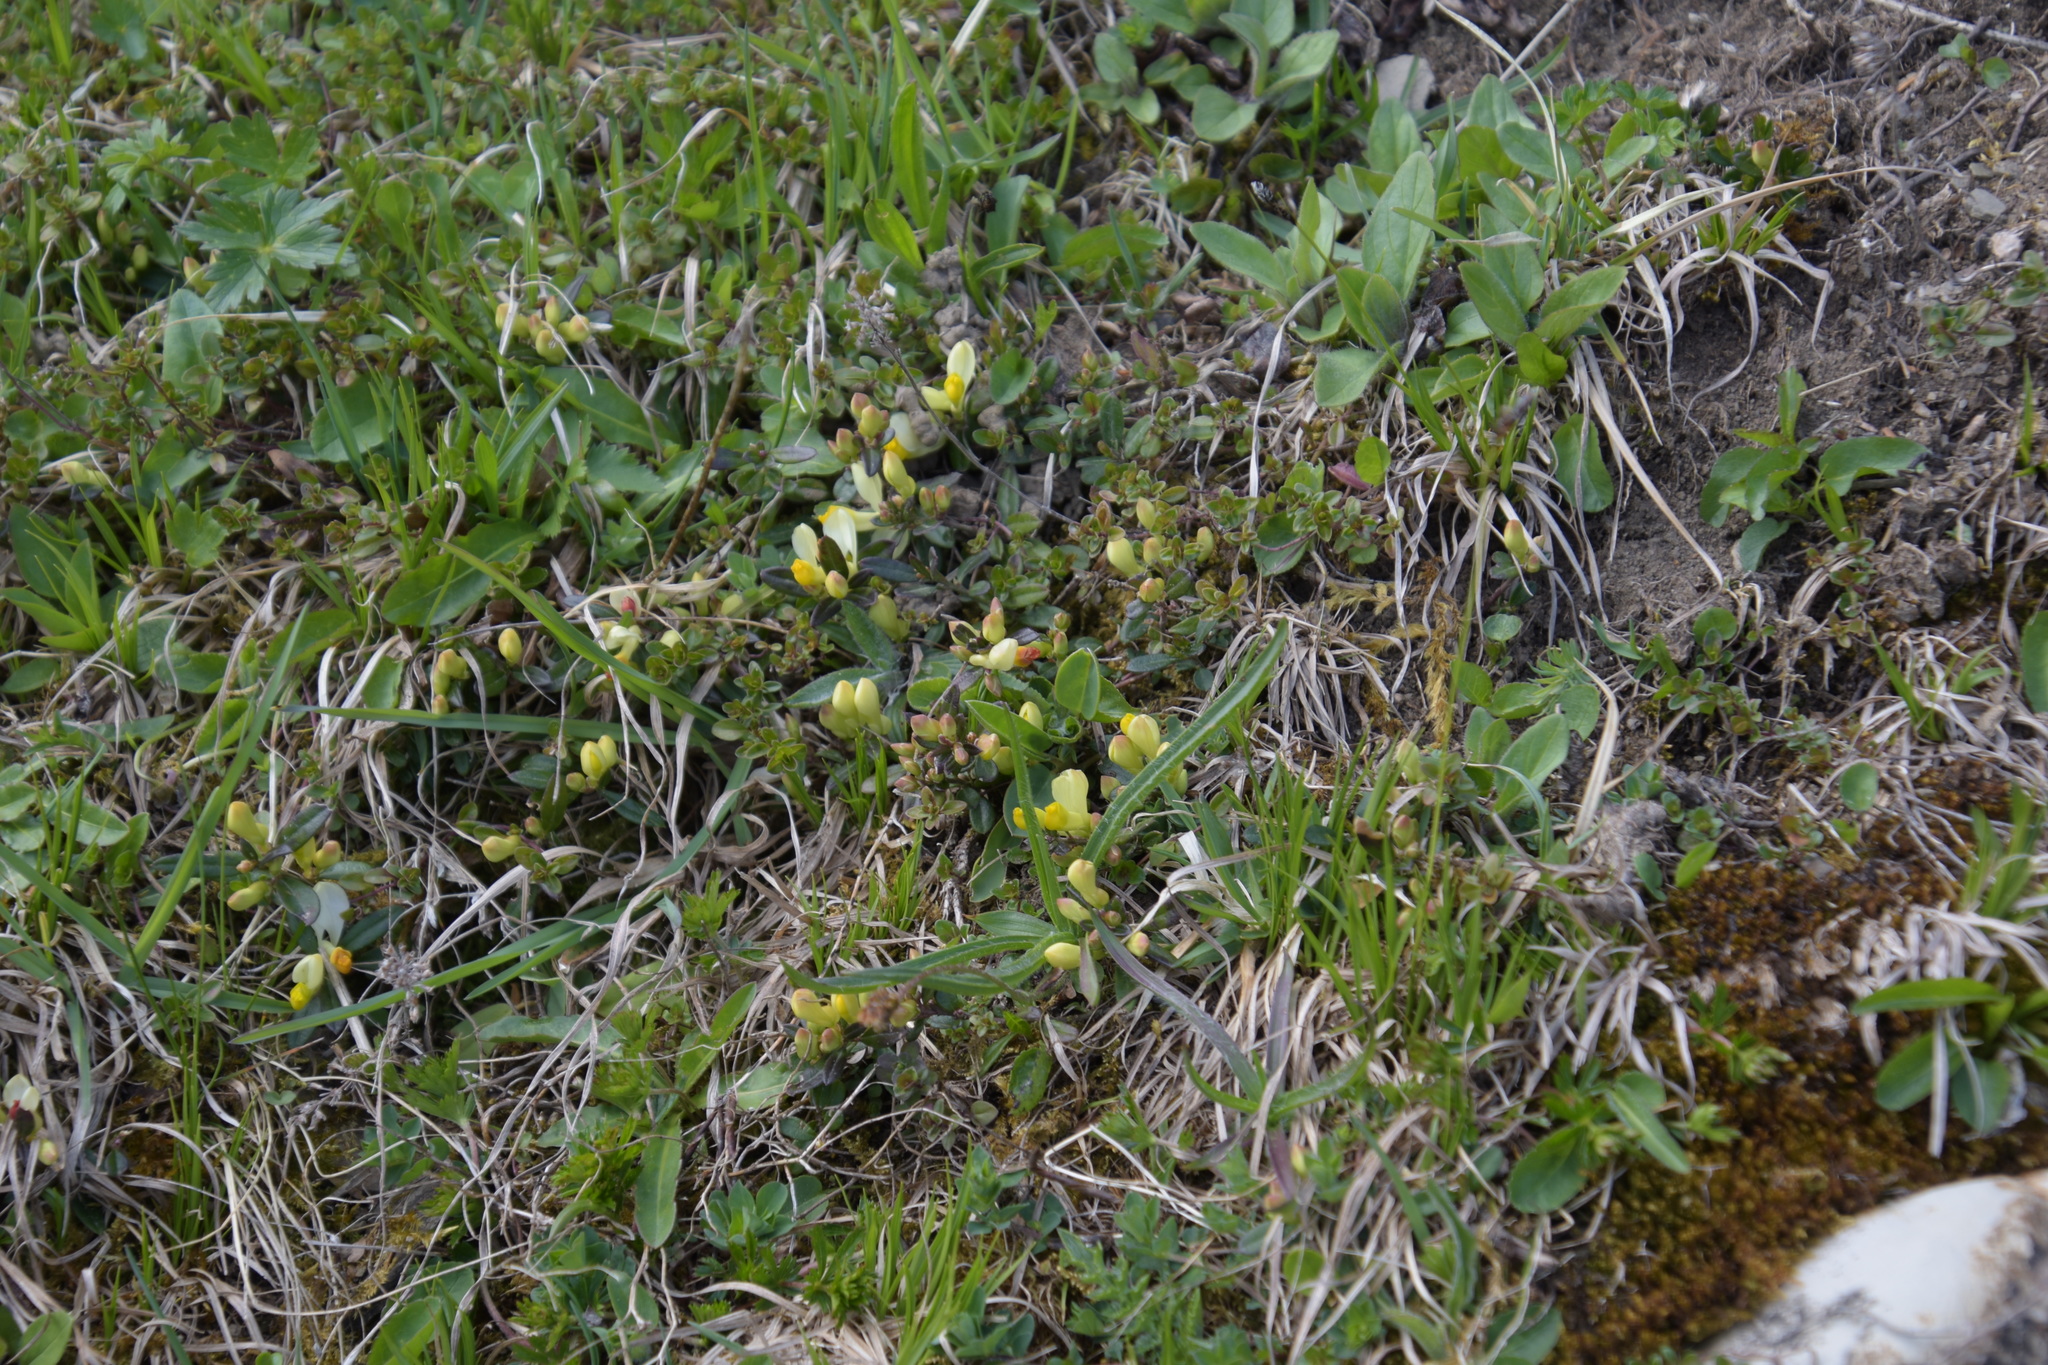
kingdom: Plantae
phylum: Tracheophyta
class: Magnoliopsida
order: Fabales
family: Polygalaceae
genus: Polygaloides
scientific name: Polygaloides chamaebuxus
